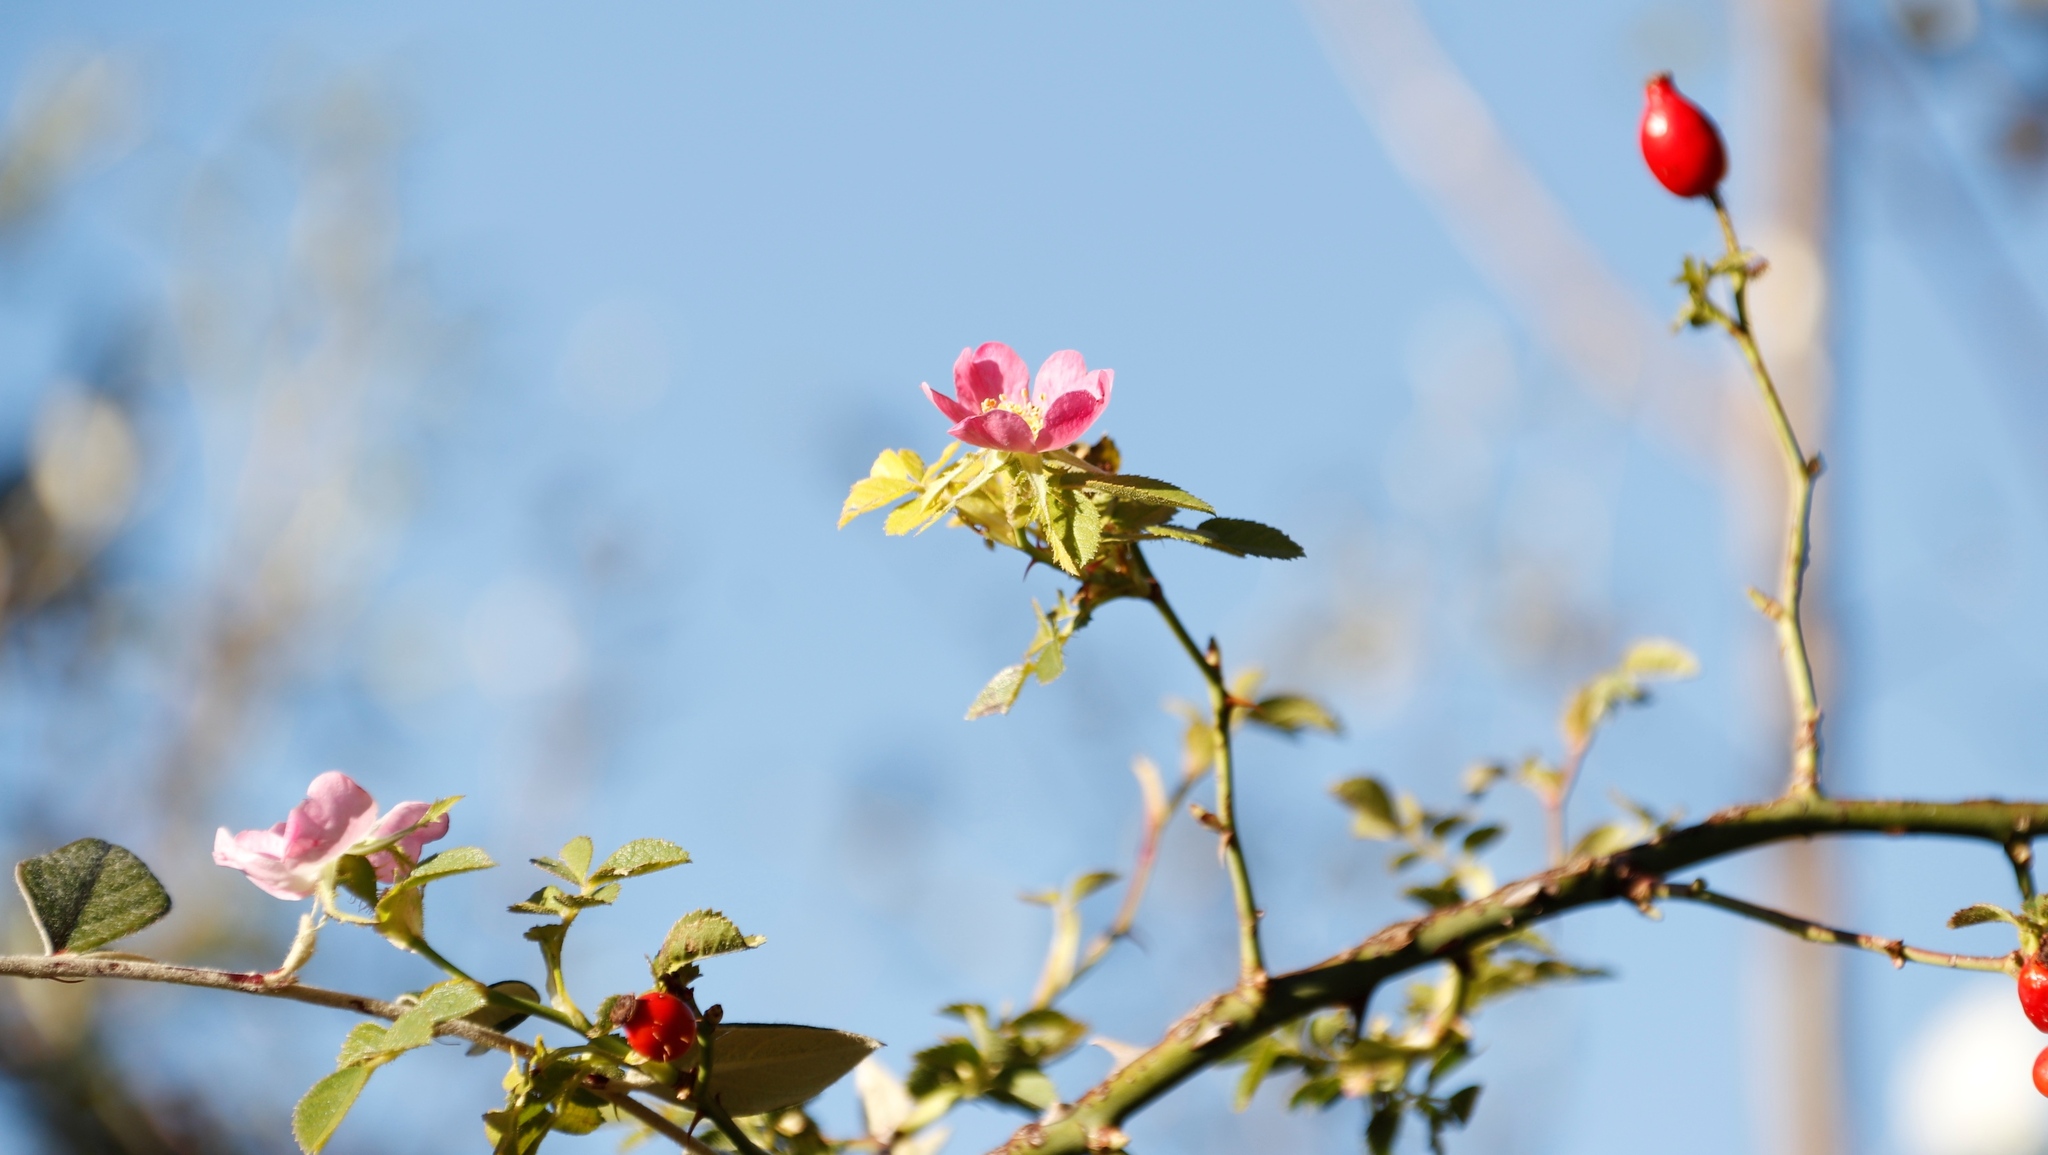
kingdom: Plantae
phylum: Tracheophyta
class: Magnoliopsida
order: Rosales
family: Rosaceae
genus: Rosa
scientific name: Rosa rubiginosa
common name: Sweet-briar
